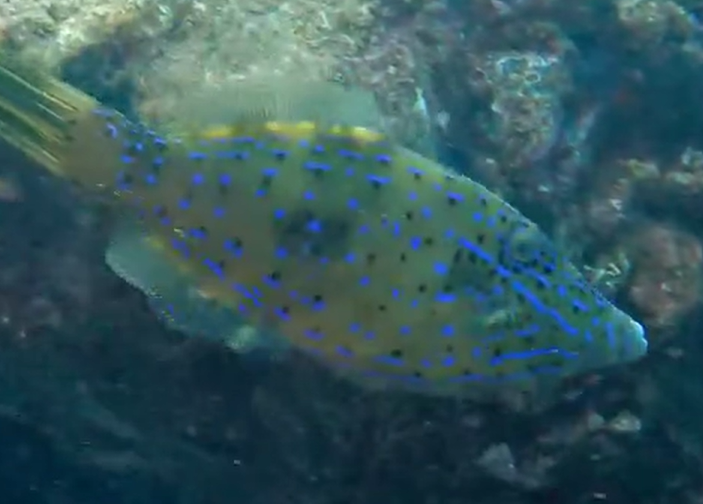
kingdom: Animalia
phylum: Chordata
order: Tetraodontiformes
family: Monacanthidae
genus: Aluterus
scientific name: Aluterus scriptus
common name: Scribbled leatherjacket filefish
